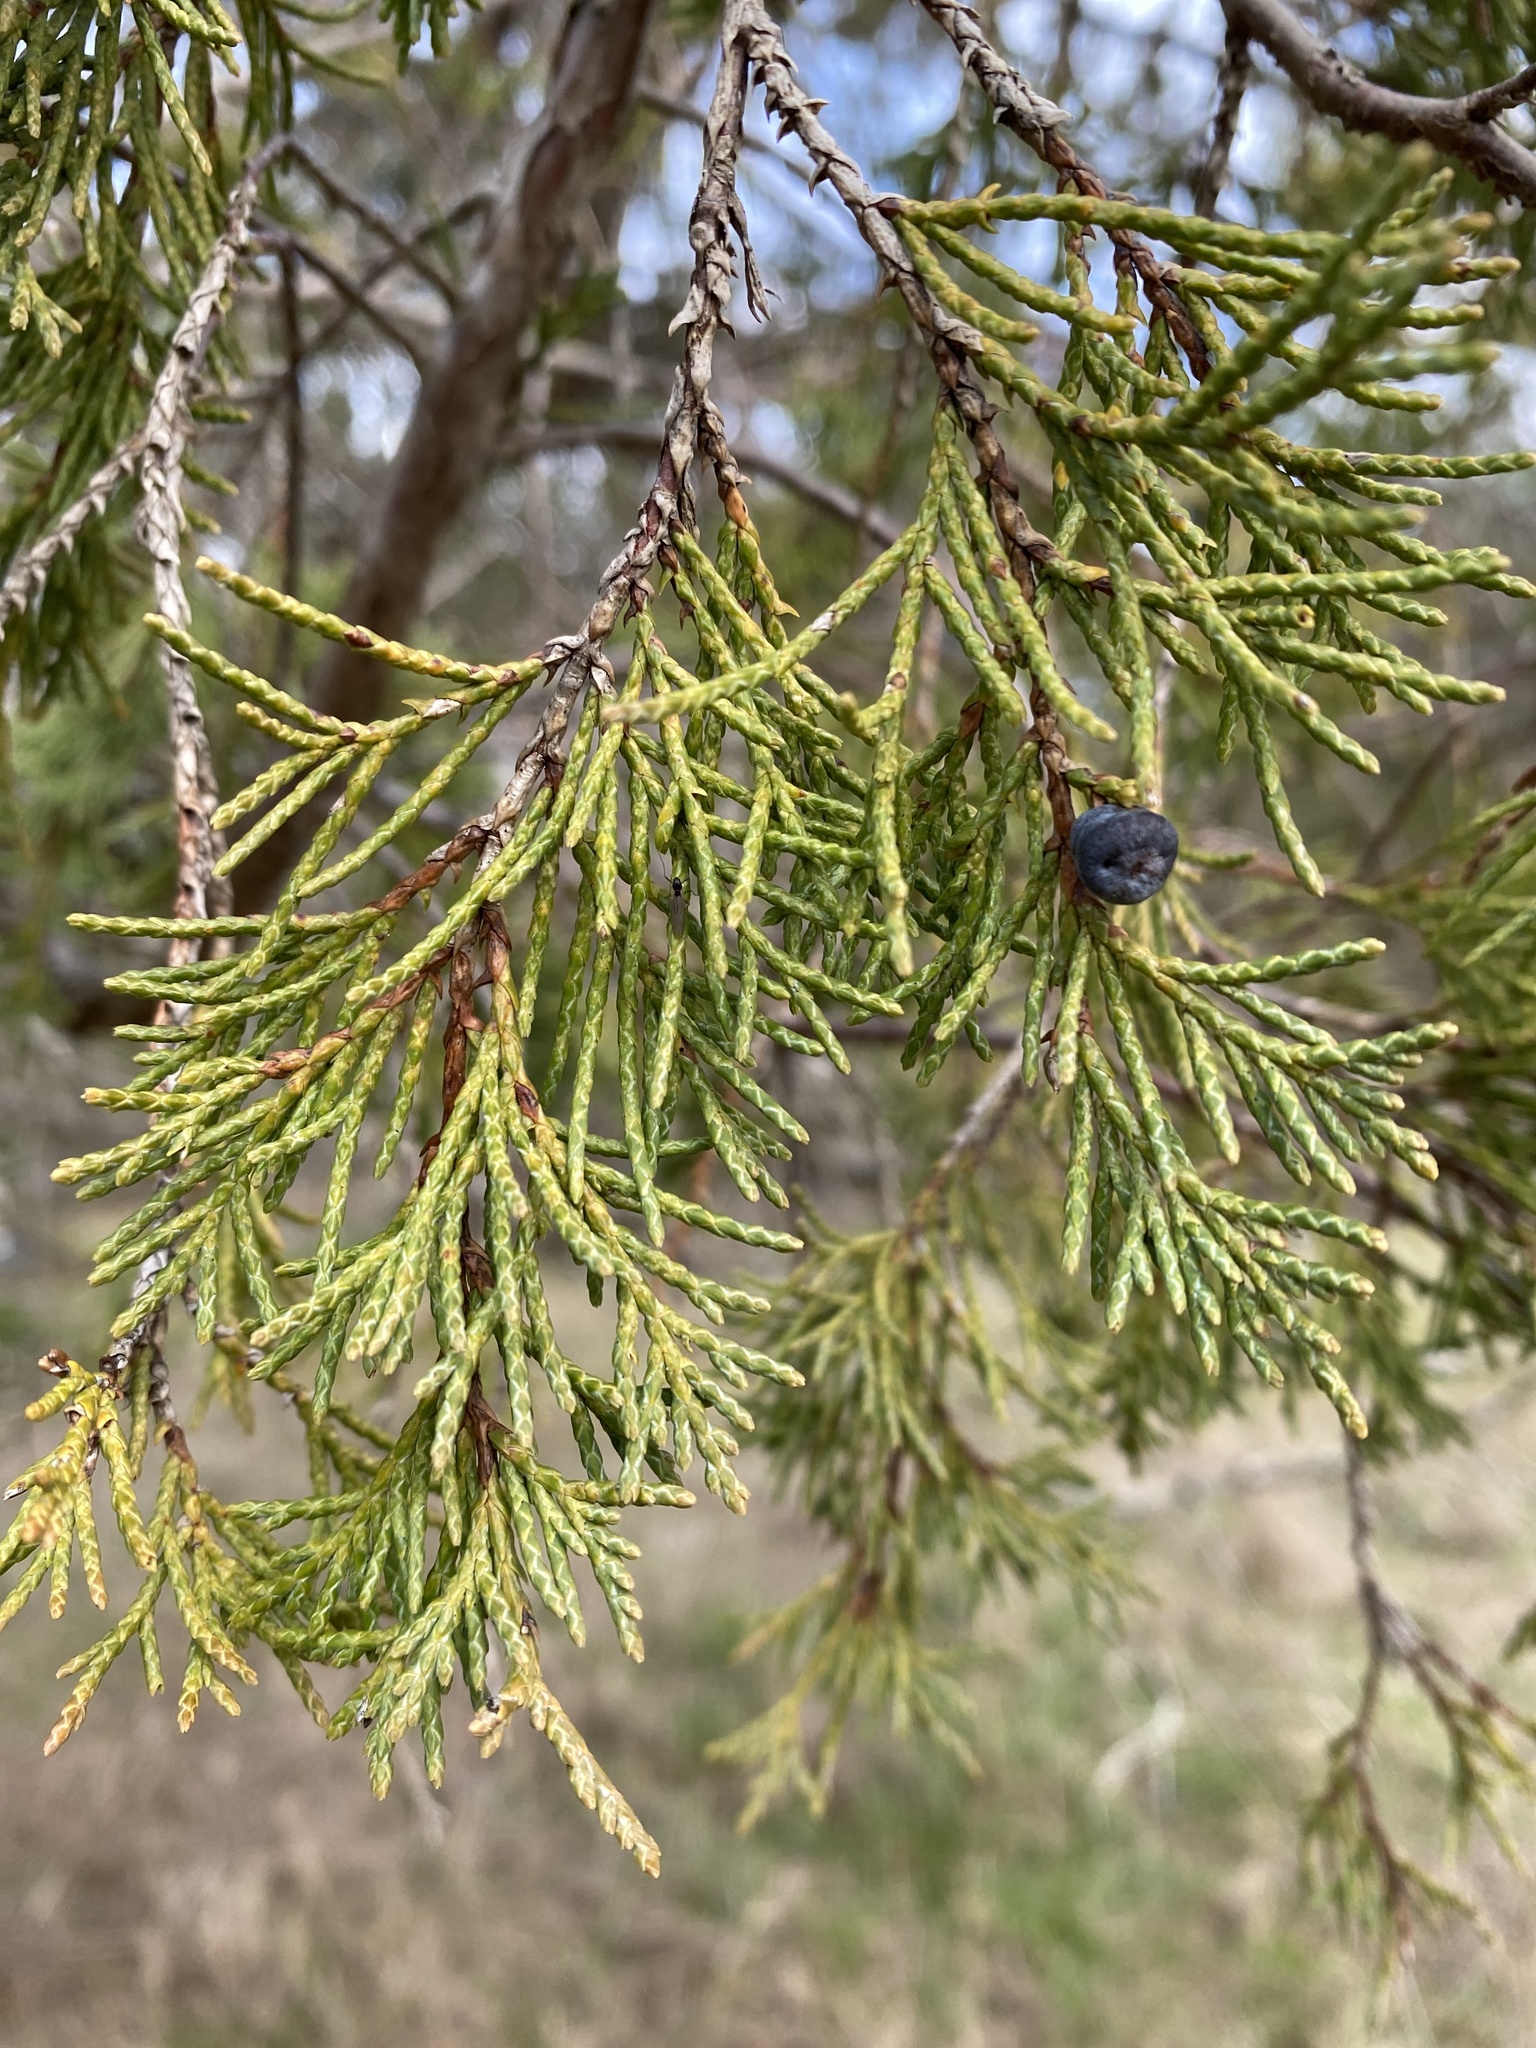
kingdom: Plantae
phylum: Tracheophyta
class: Pinopsida
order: Pinales
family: Cupressaceae
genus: Juniperus
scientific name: Juniperus scopulorum
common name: Rocky mountain juniper
